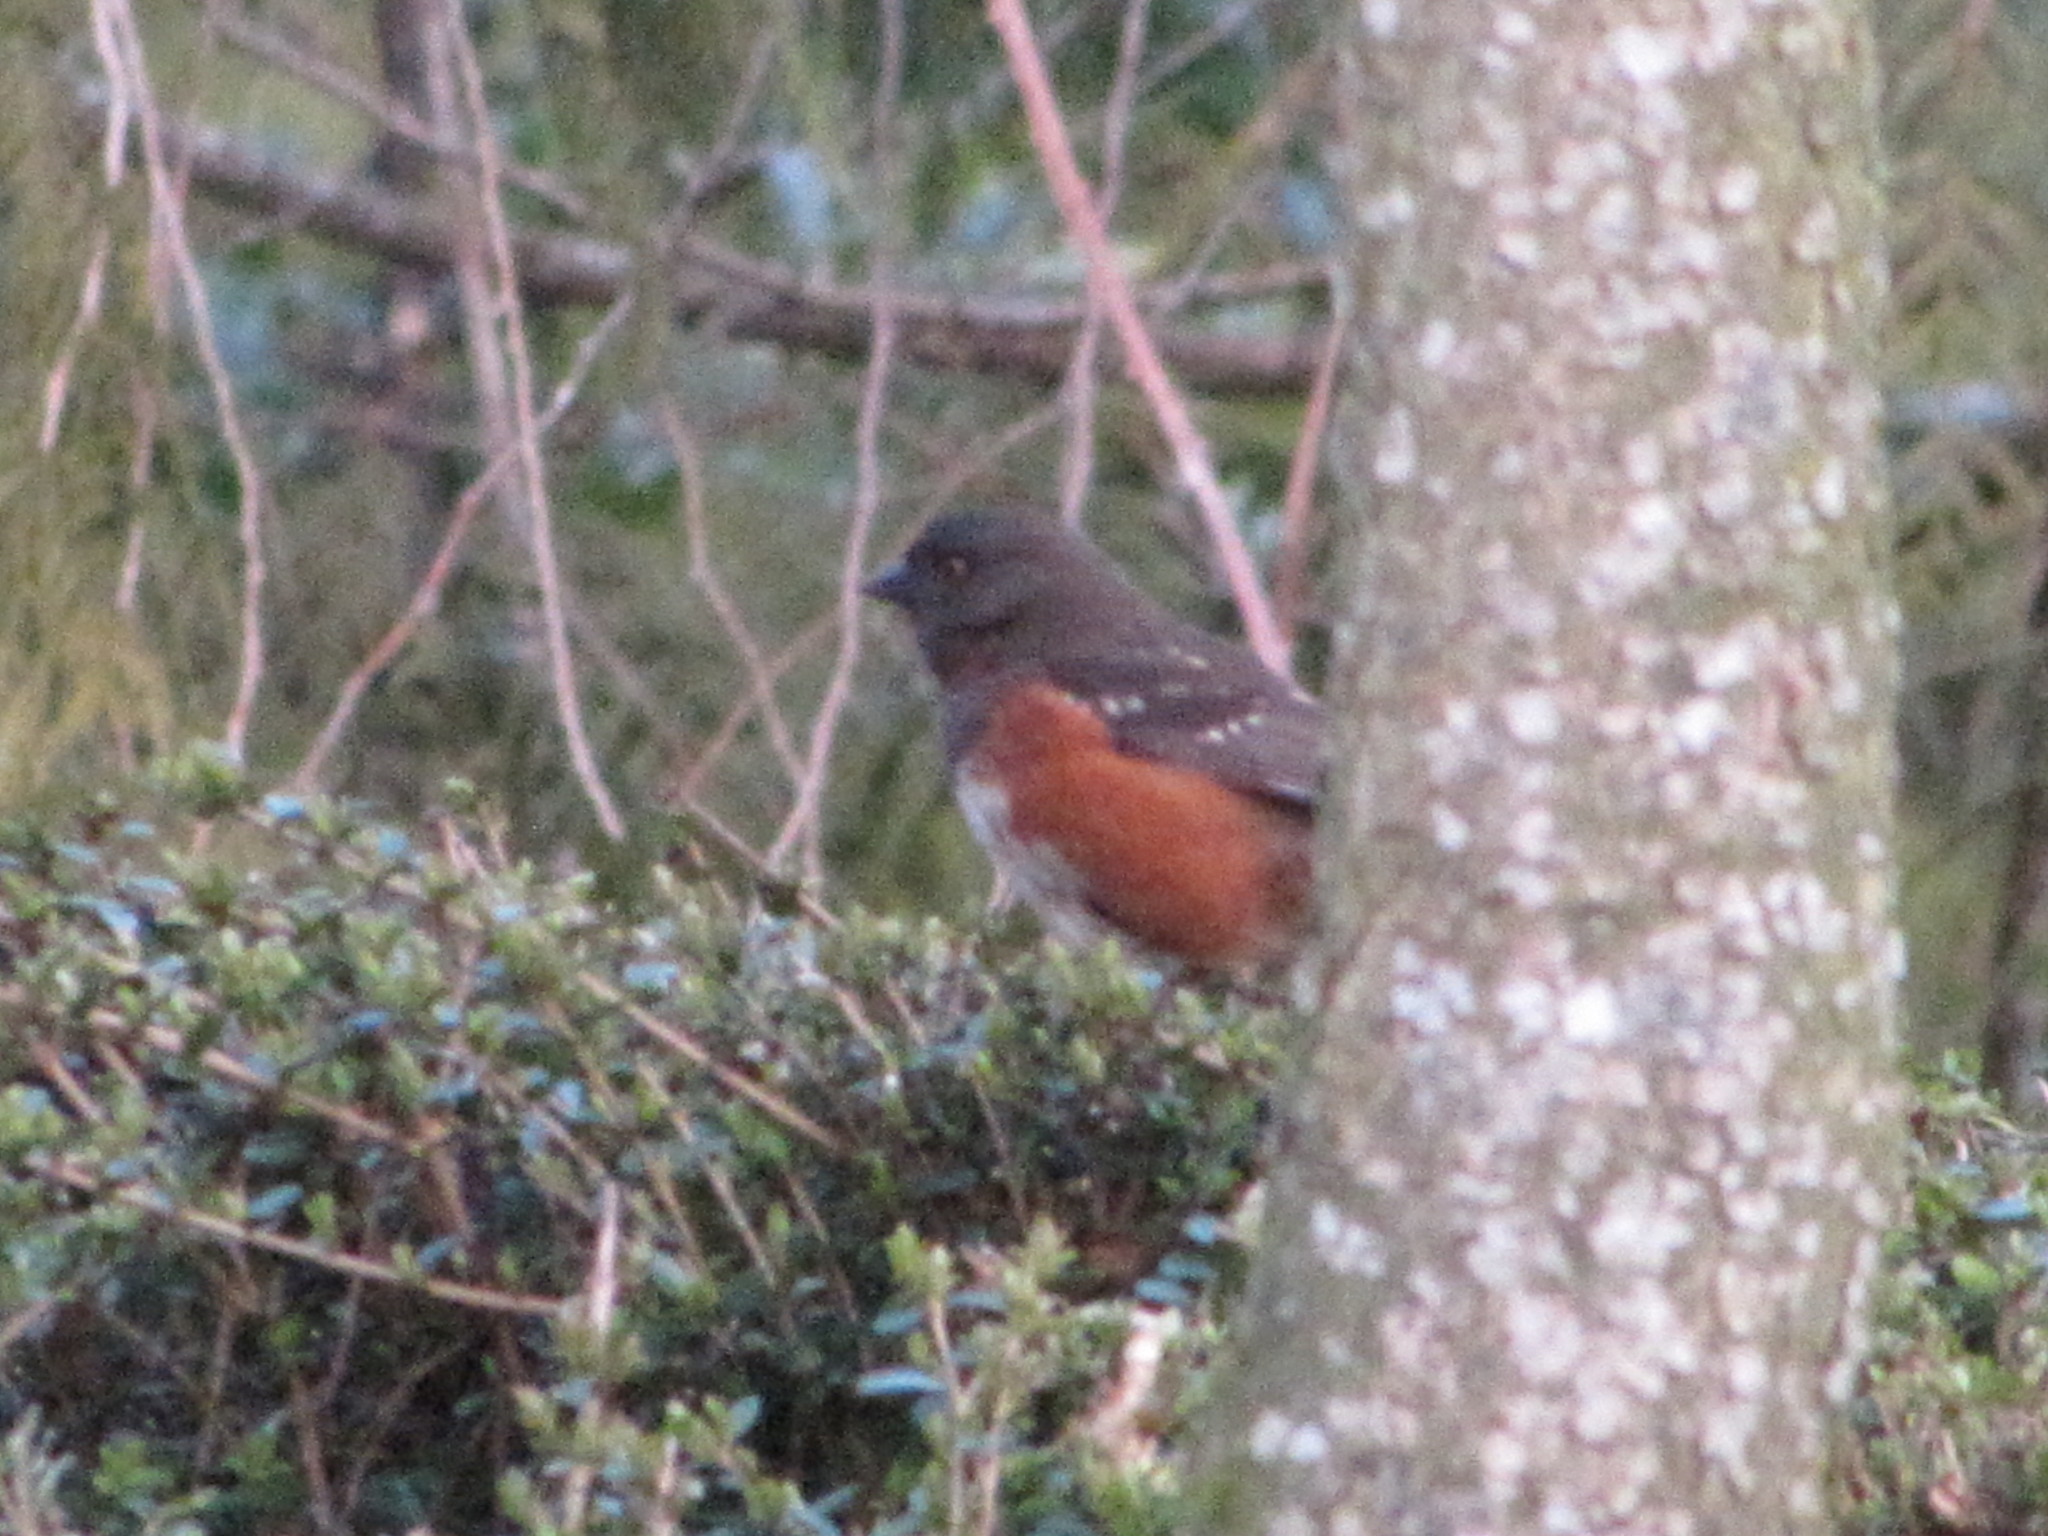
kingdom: Animalia
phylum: Chordata
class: Aves
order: Passeriformes
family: Passerellidae
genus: Pipilo
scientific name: Pipilo maculatus
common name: Spotted towhee
